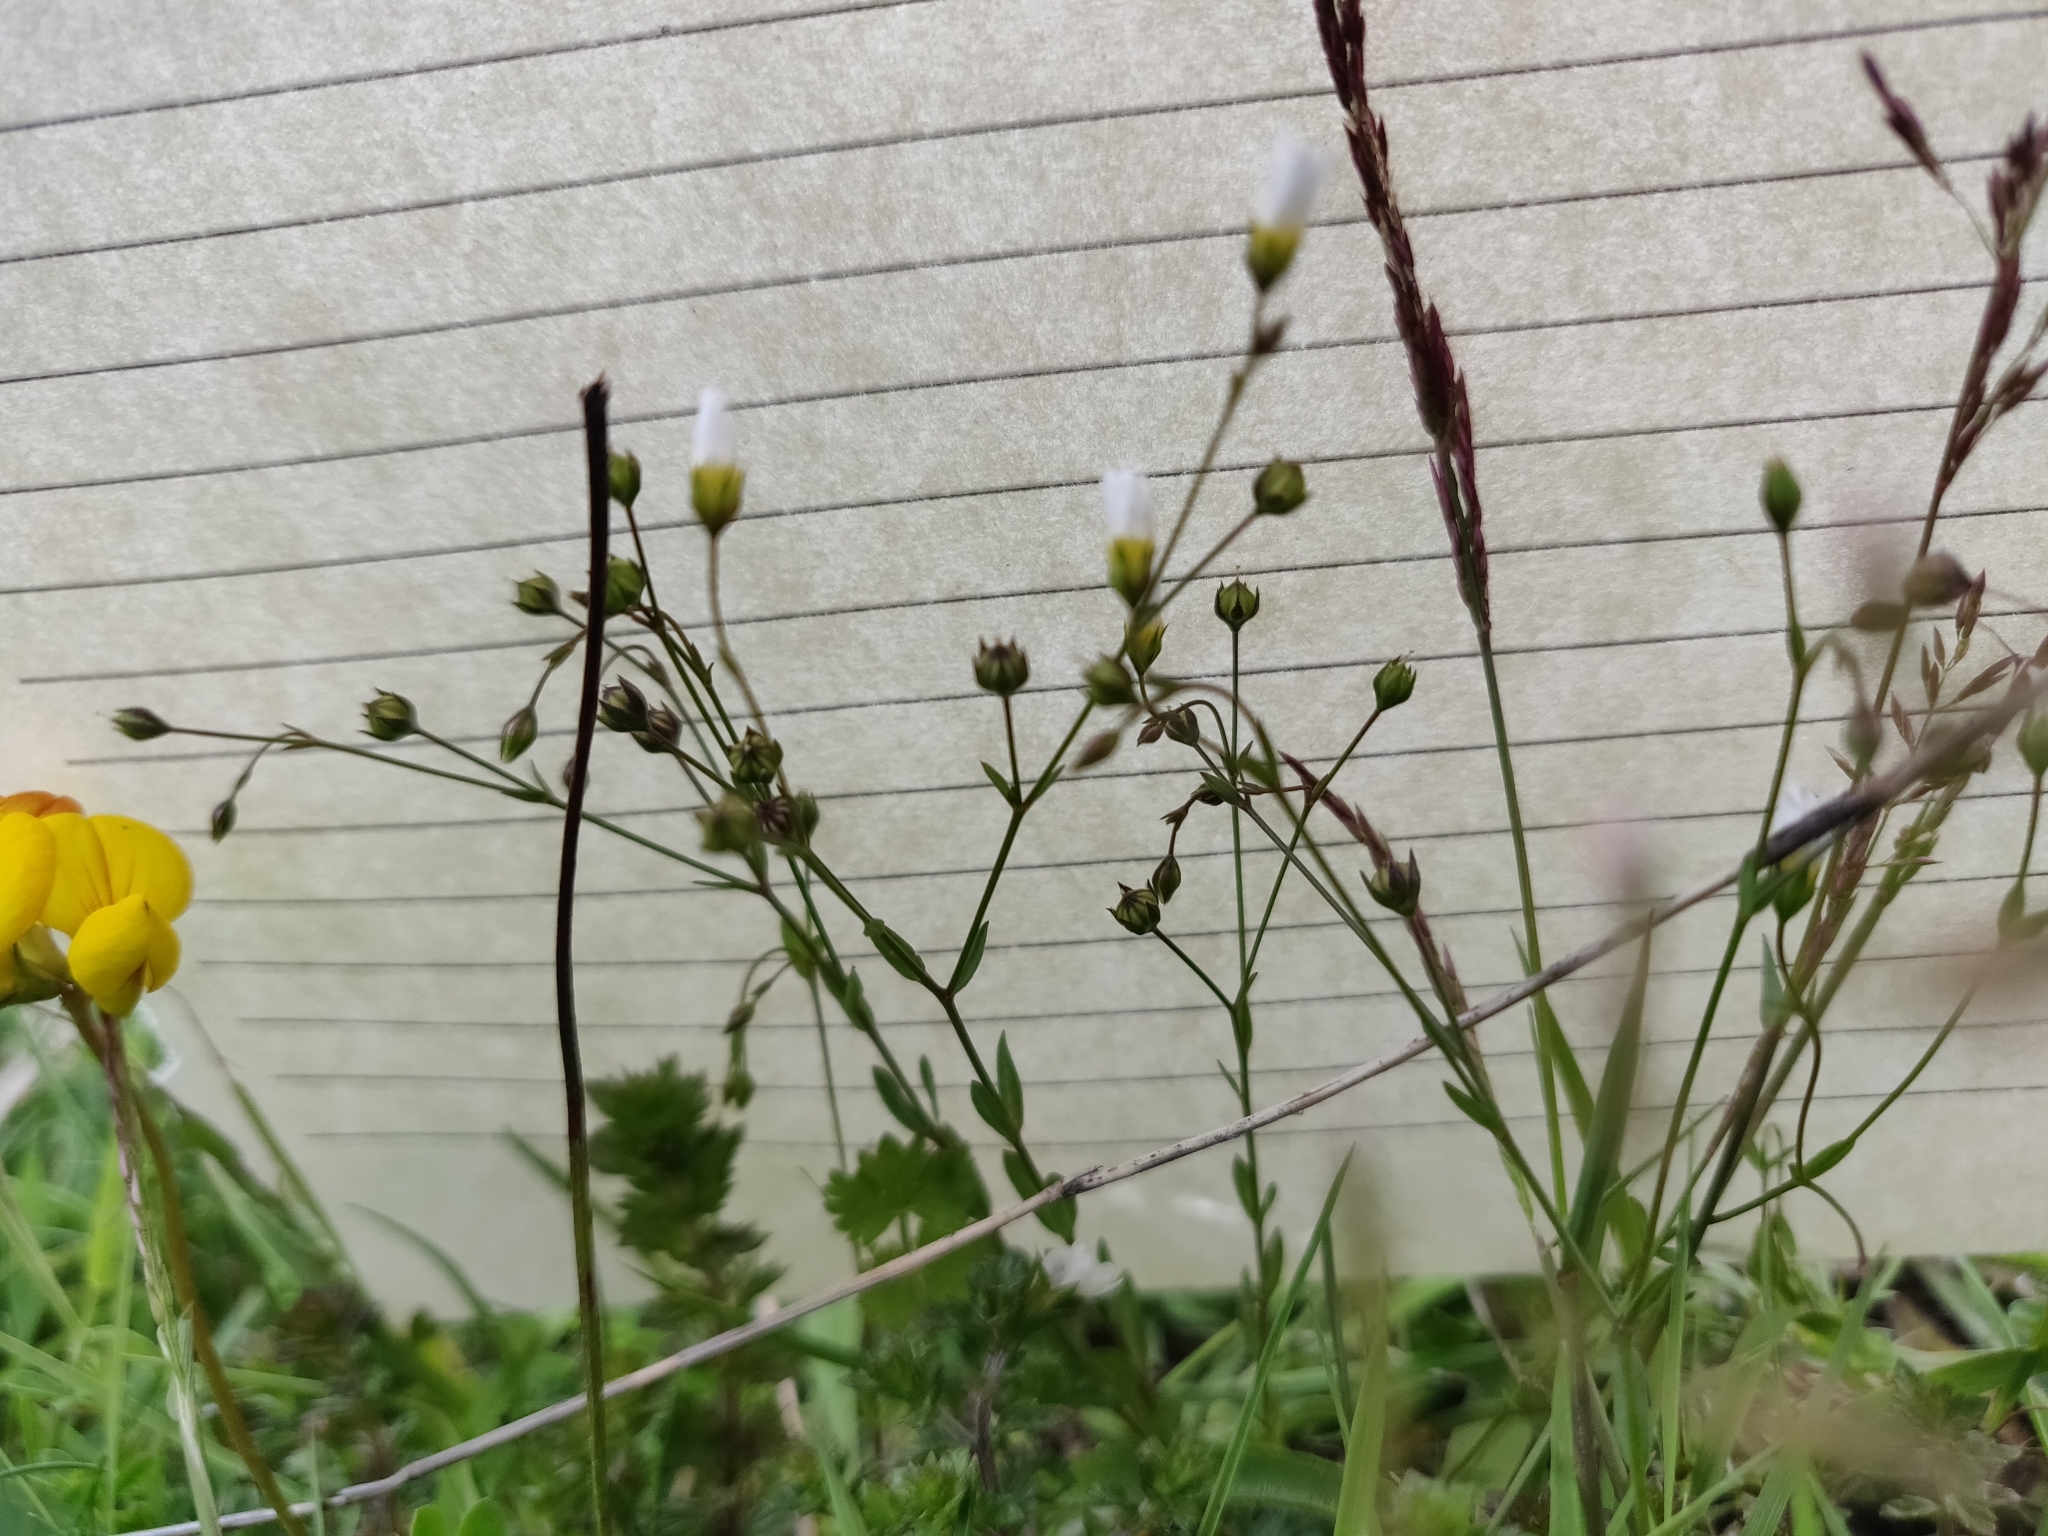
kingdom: Plantae
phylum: Tracheophyta
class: Magnoliopsida
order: Malpighiales
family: Linaceae
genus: Linum
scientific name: Linum catharticum
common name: Fairy flax
